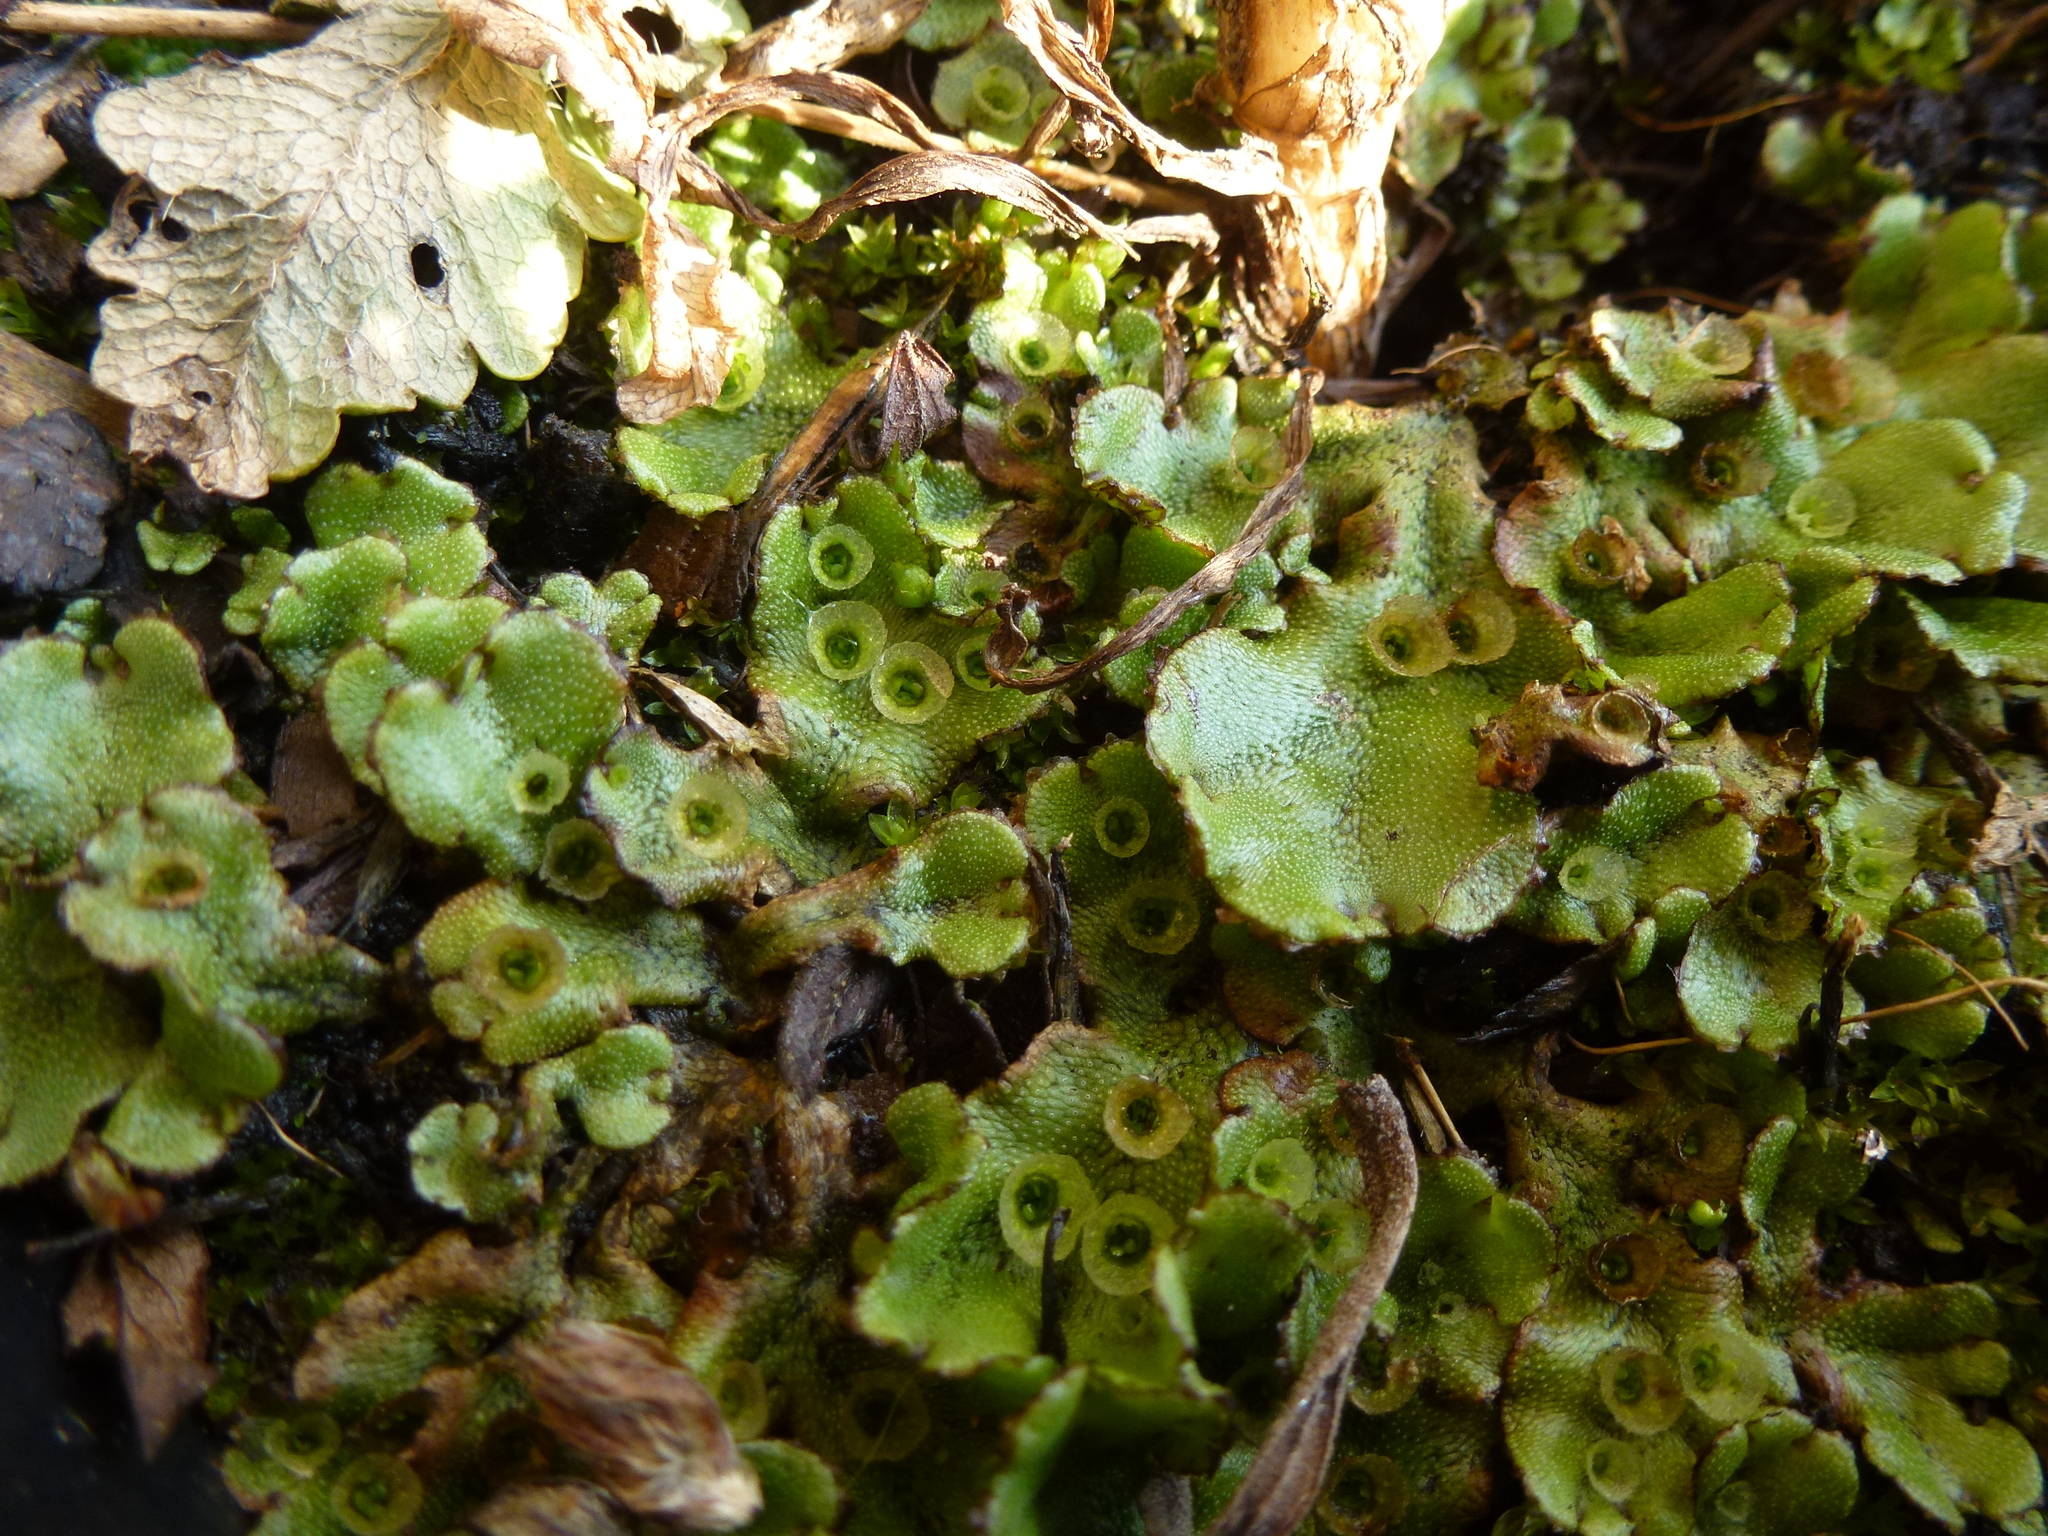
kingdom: Plantae
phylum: Marchantiophyta
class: Marchantiopsida
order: Marchantiales
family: Marchantiaceae
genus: Marchantia
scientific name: Marchantia polymorpha
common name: Common liverwort
